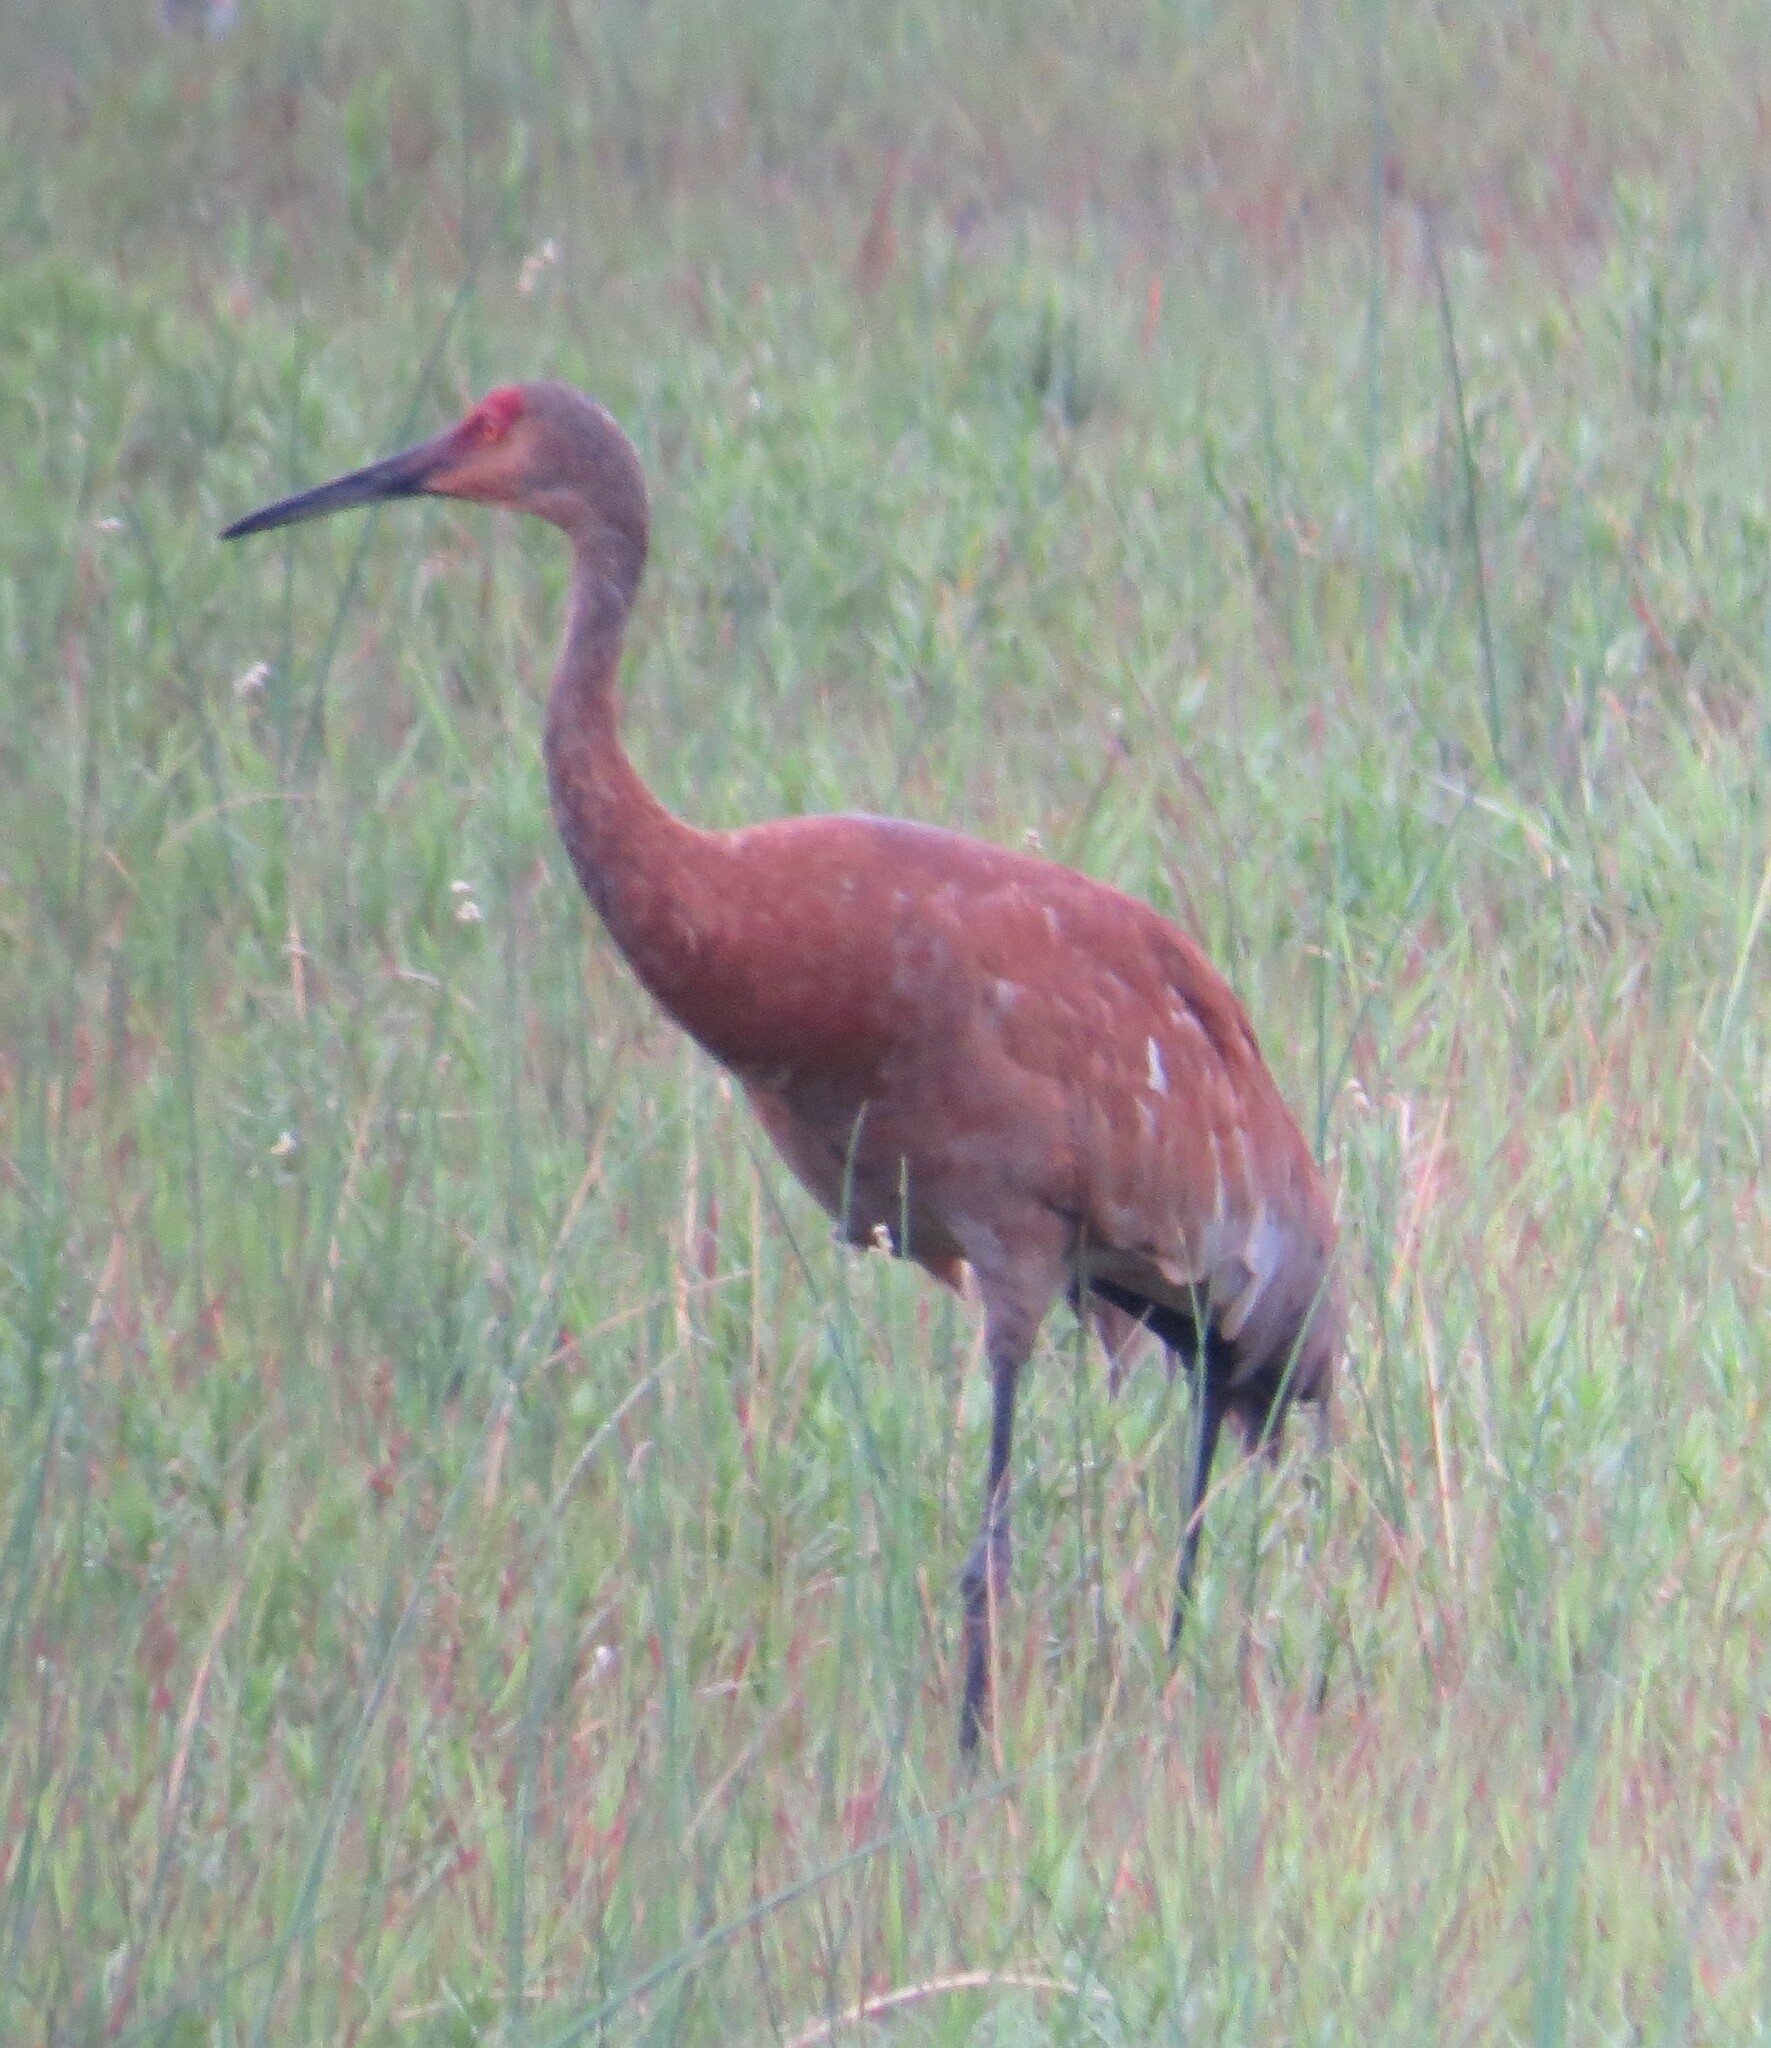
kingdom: Animalia
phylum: Chordata
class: Aves
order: Gruiformes
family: Gruidae
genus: Grus
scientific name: Grus canadensis
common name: Sandhill crane
